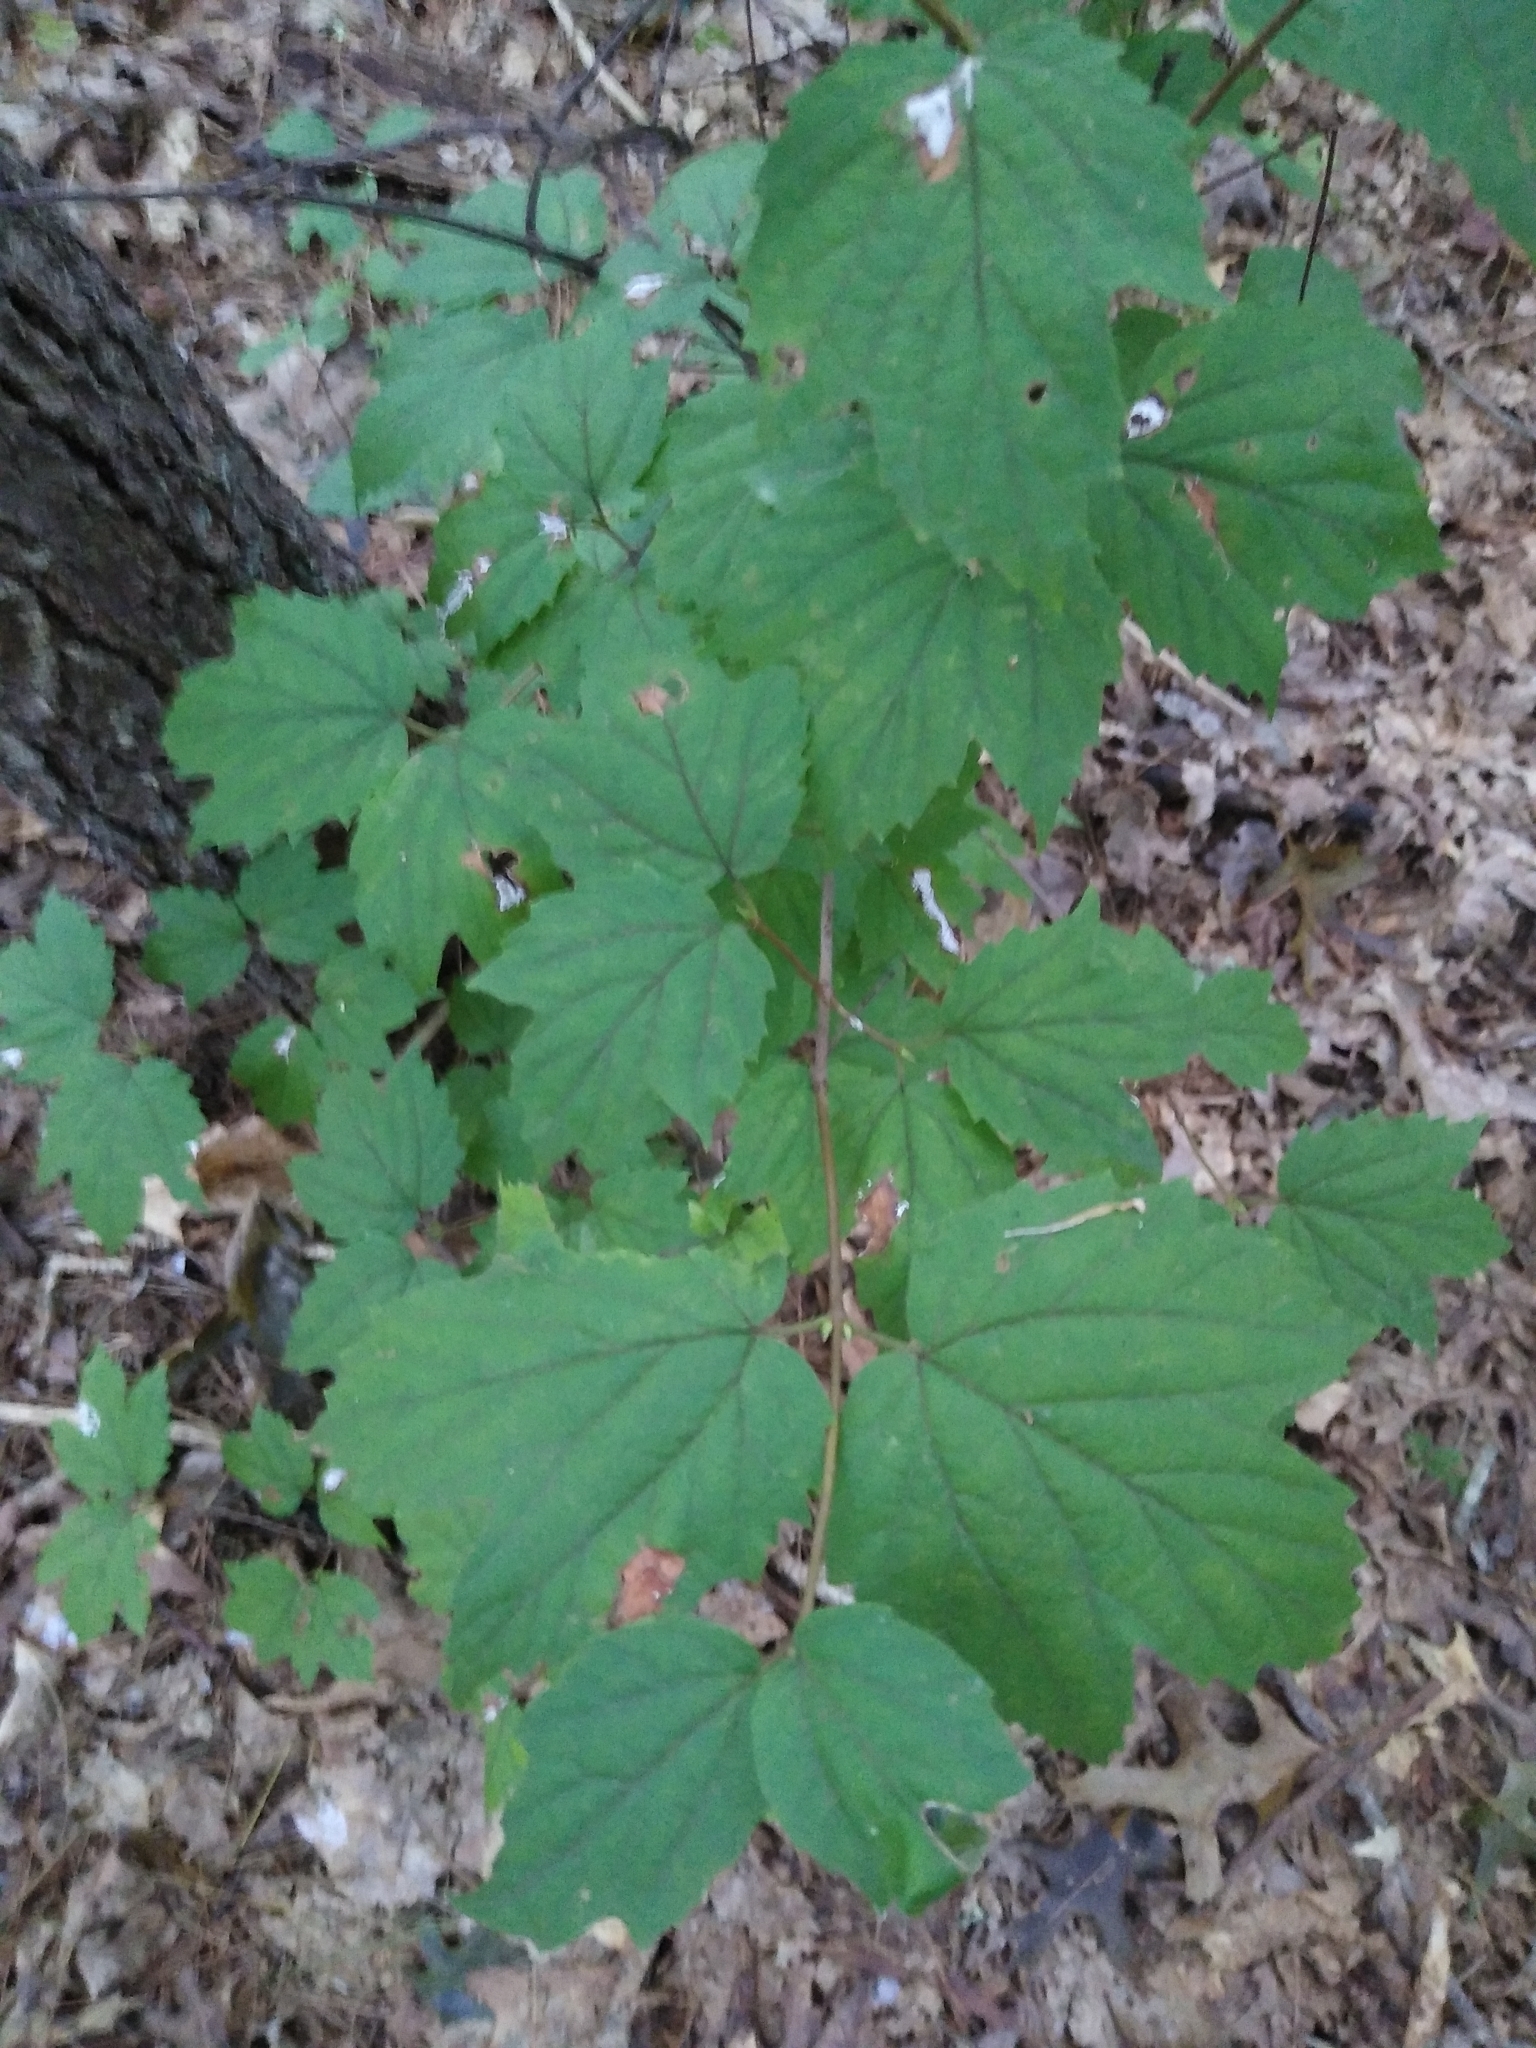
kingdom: Plantae
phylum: Tracheophyta
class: Magnoliopsida
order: Dipsacales
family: Viburnaceae
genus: Viburnum
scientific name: Viburnum acerifolium
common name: Dockmackie
